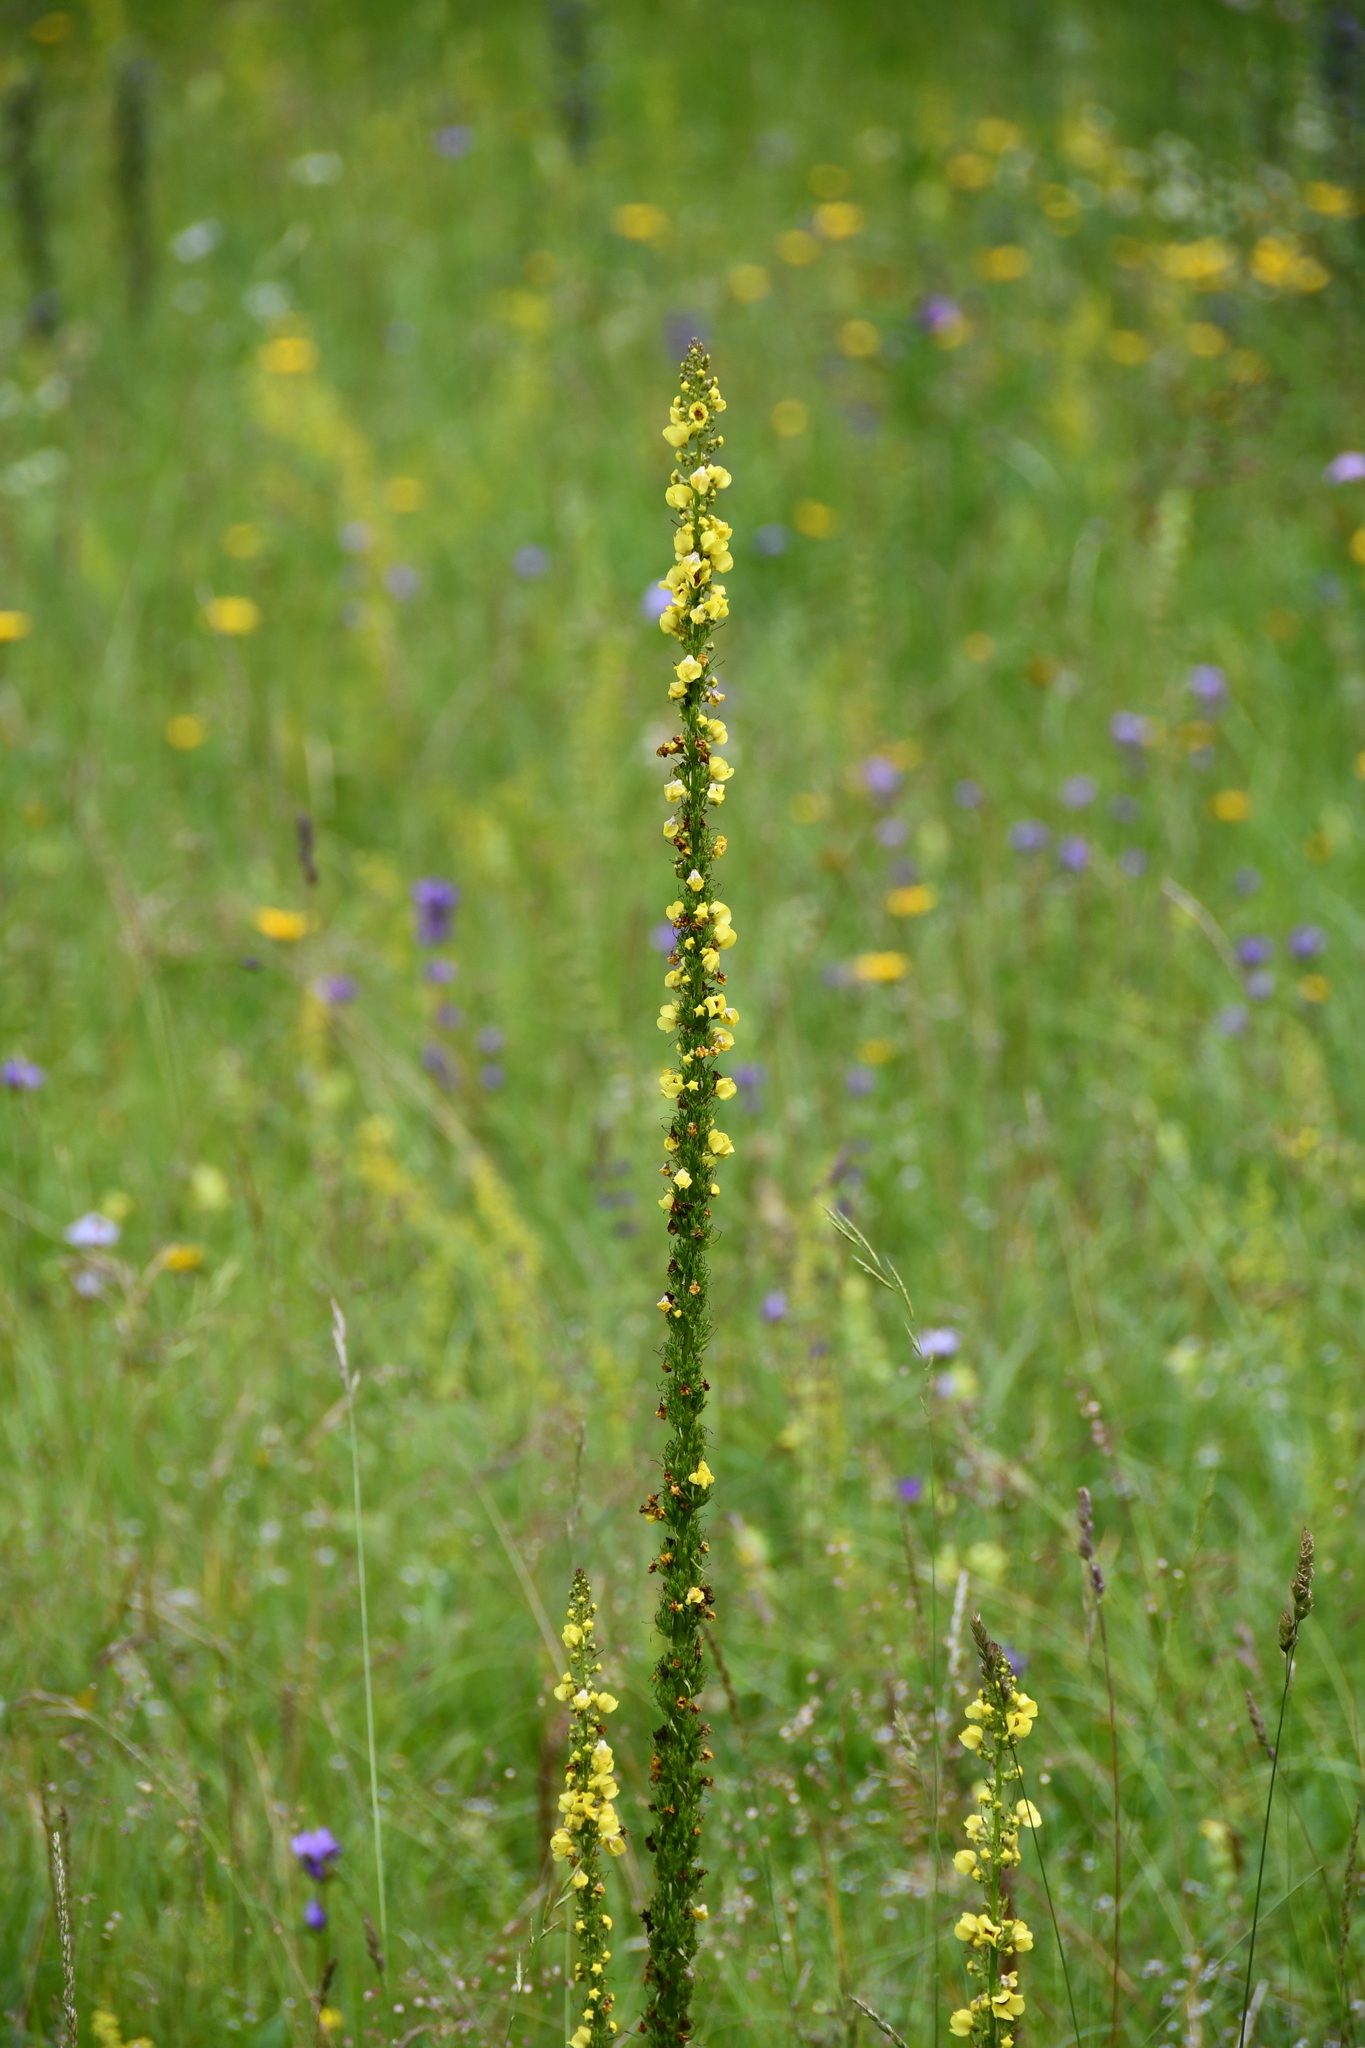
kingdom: Plantae
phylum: Tracheophyta
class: Magnoliopsida
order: Lamiales
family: Scrophulariaceae
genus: Verbascum
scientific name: Verbascum nigrum
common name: Dark mullein
